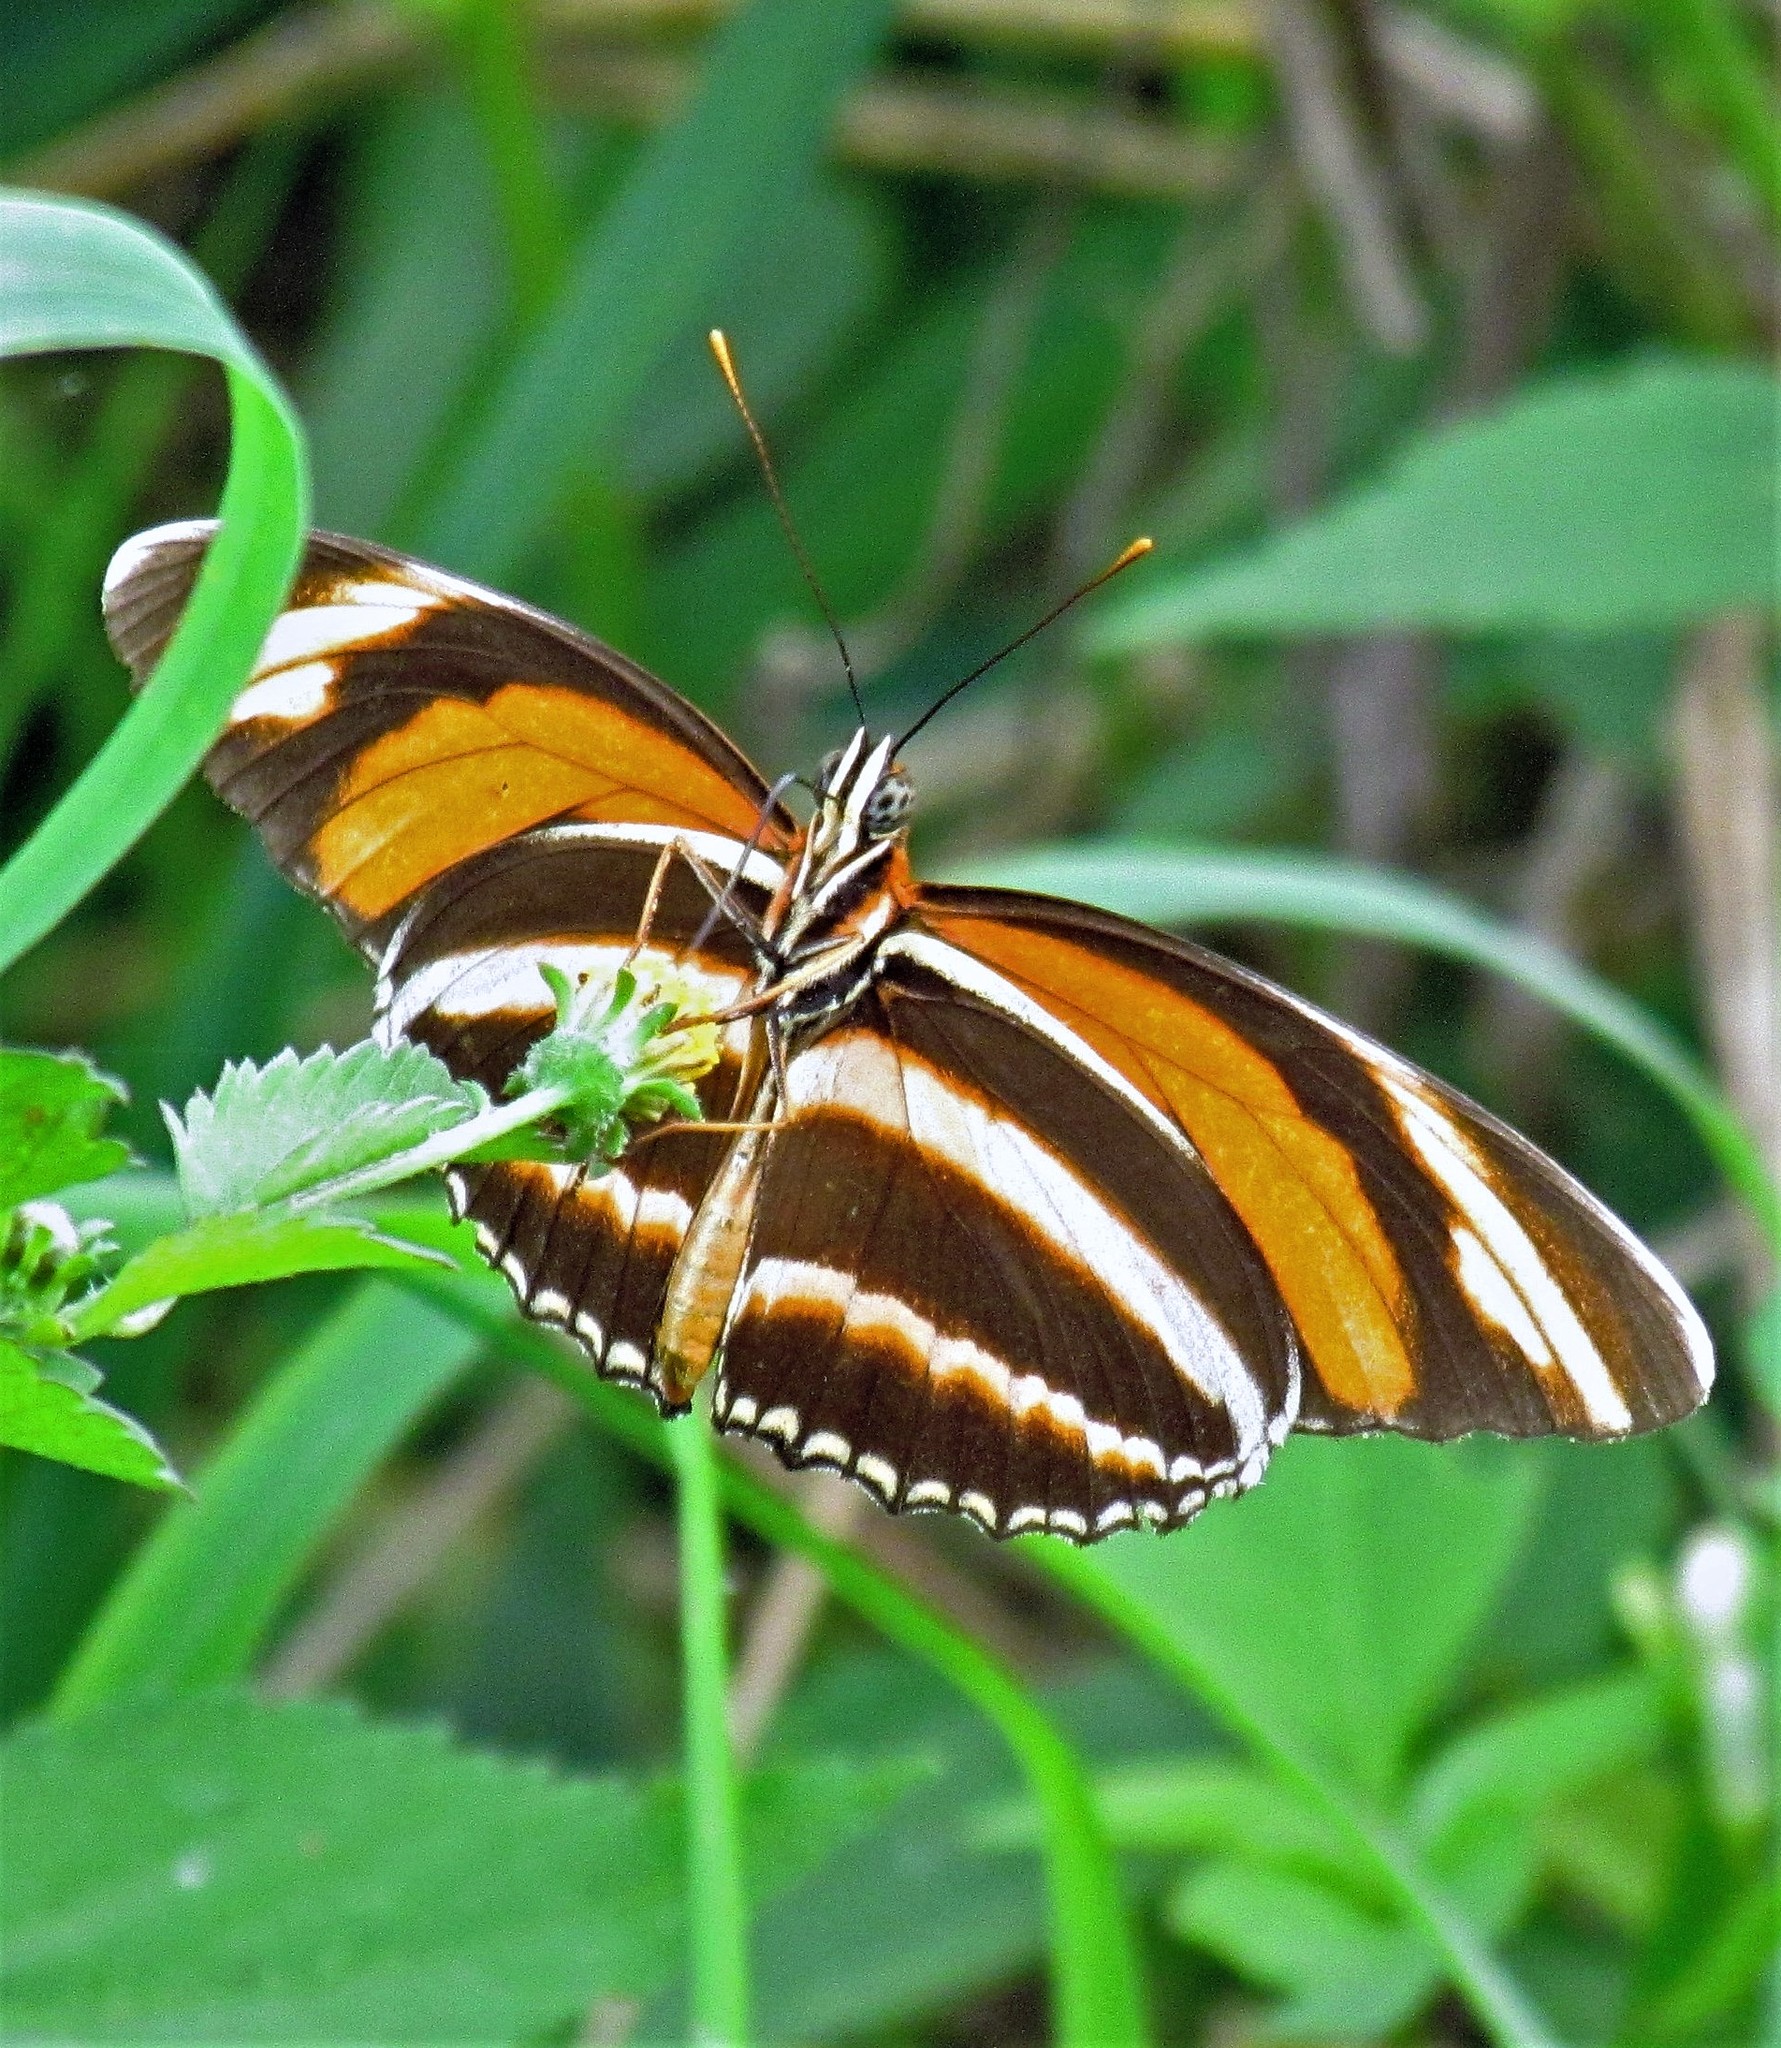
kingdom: Animalia
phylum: Arthropoda
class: Insecta
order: Lepidoptera
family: Nymphalidae
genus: Dryadula
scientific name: Dryadula phaetusa
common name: Banded orange heliconian
